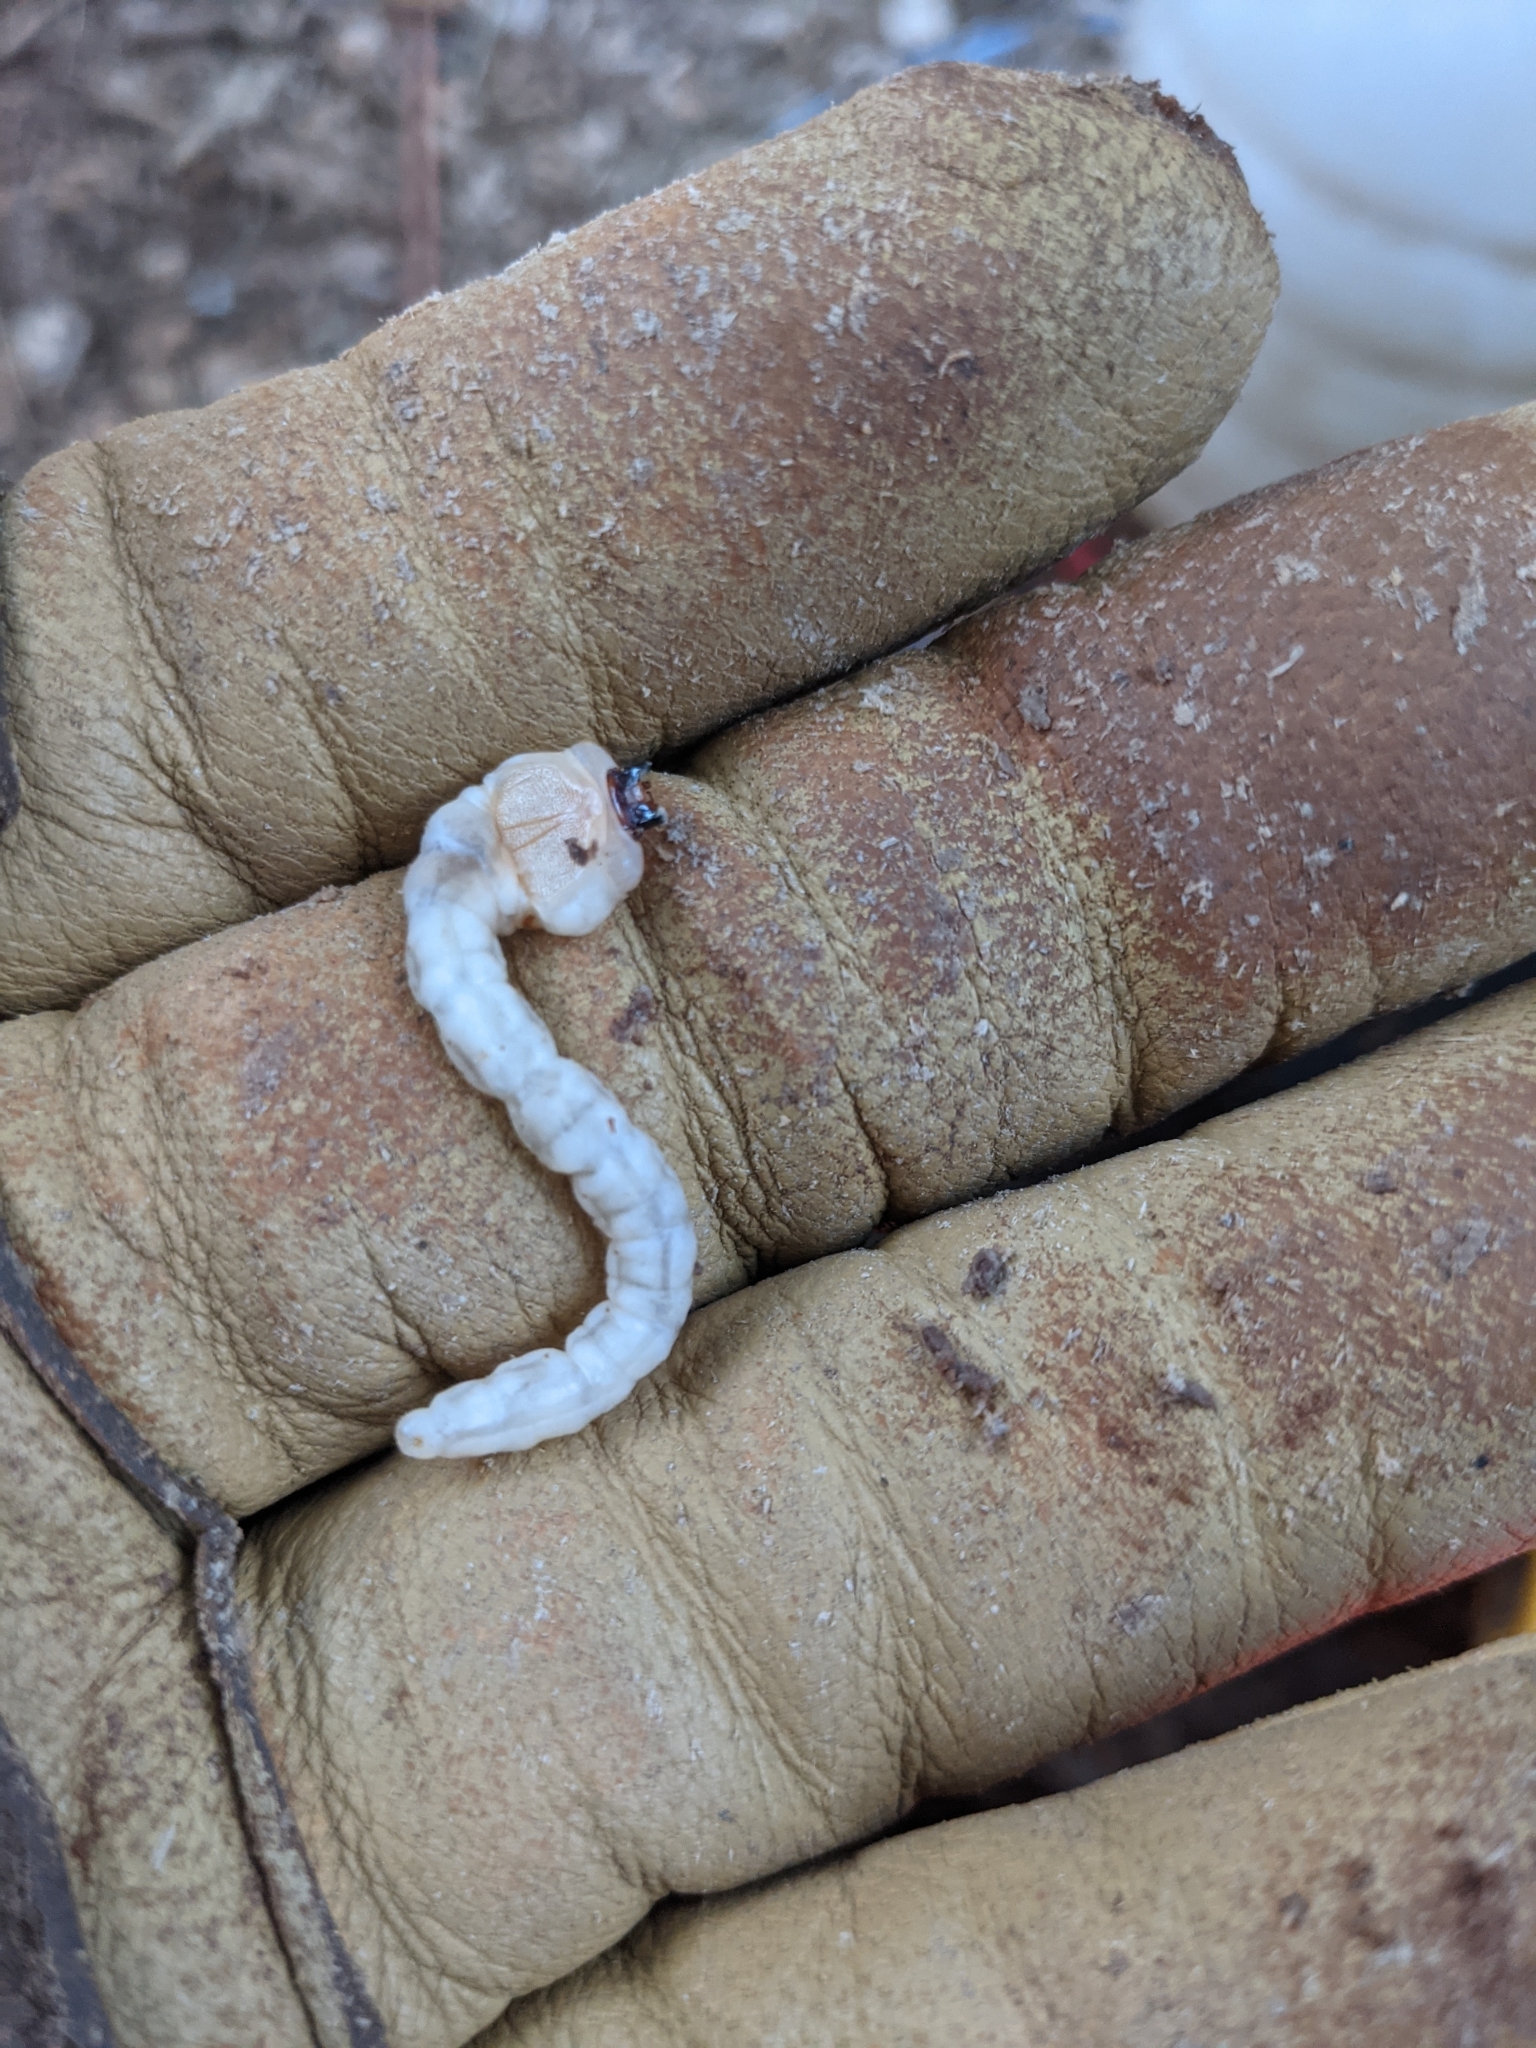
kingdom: Animalia
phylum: Arthropoda
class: Insecta
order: Coleoptera
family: Buprestidae
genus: Chalcophora
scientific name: Chalcophora angulicollis
